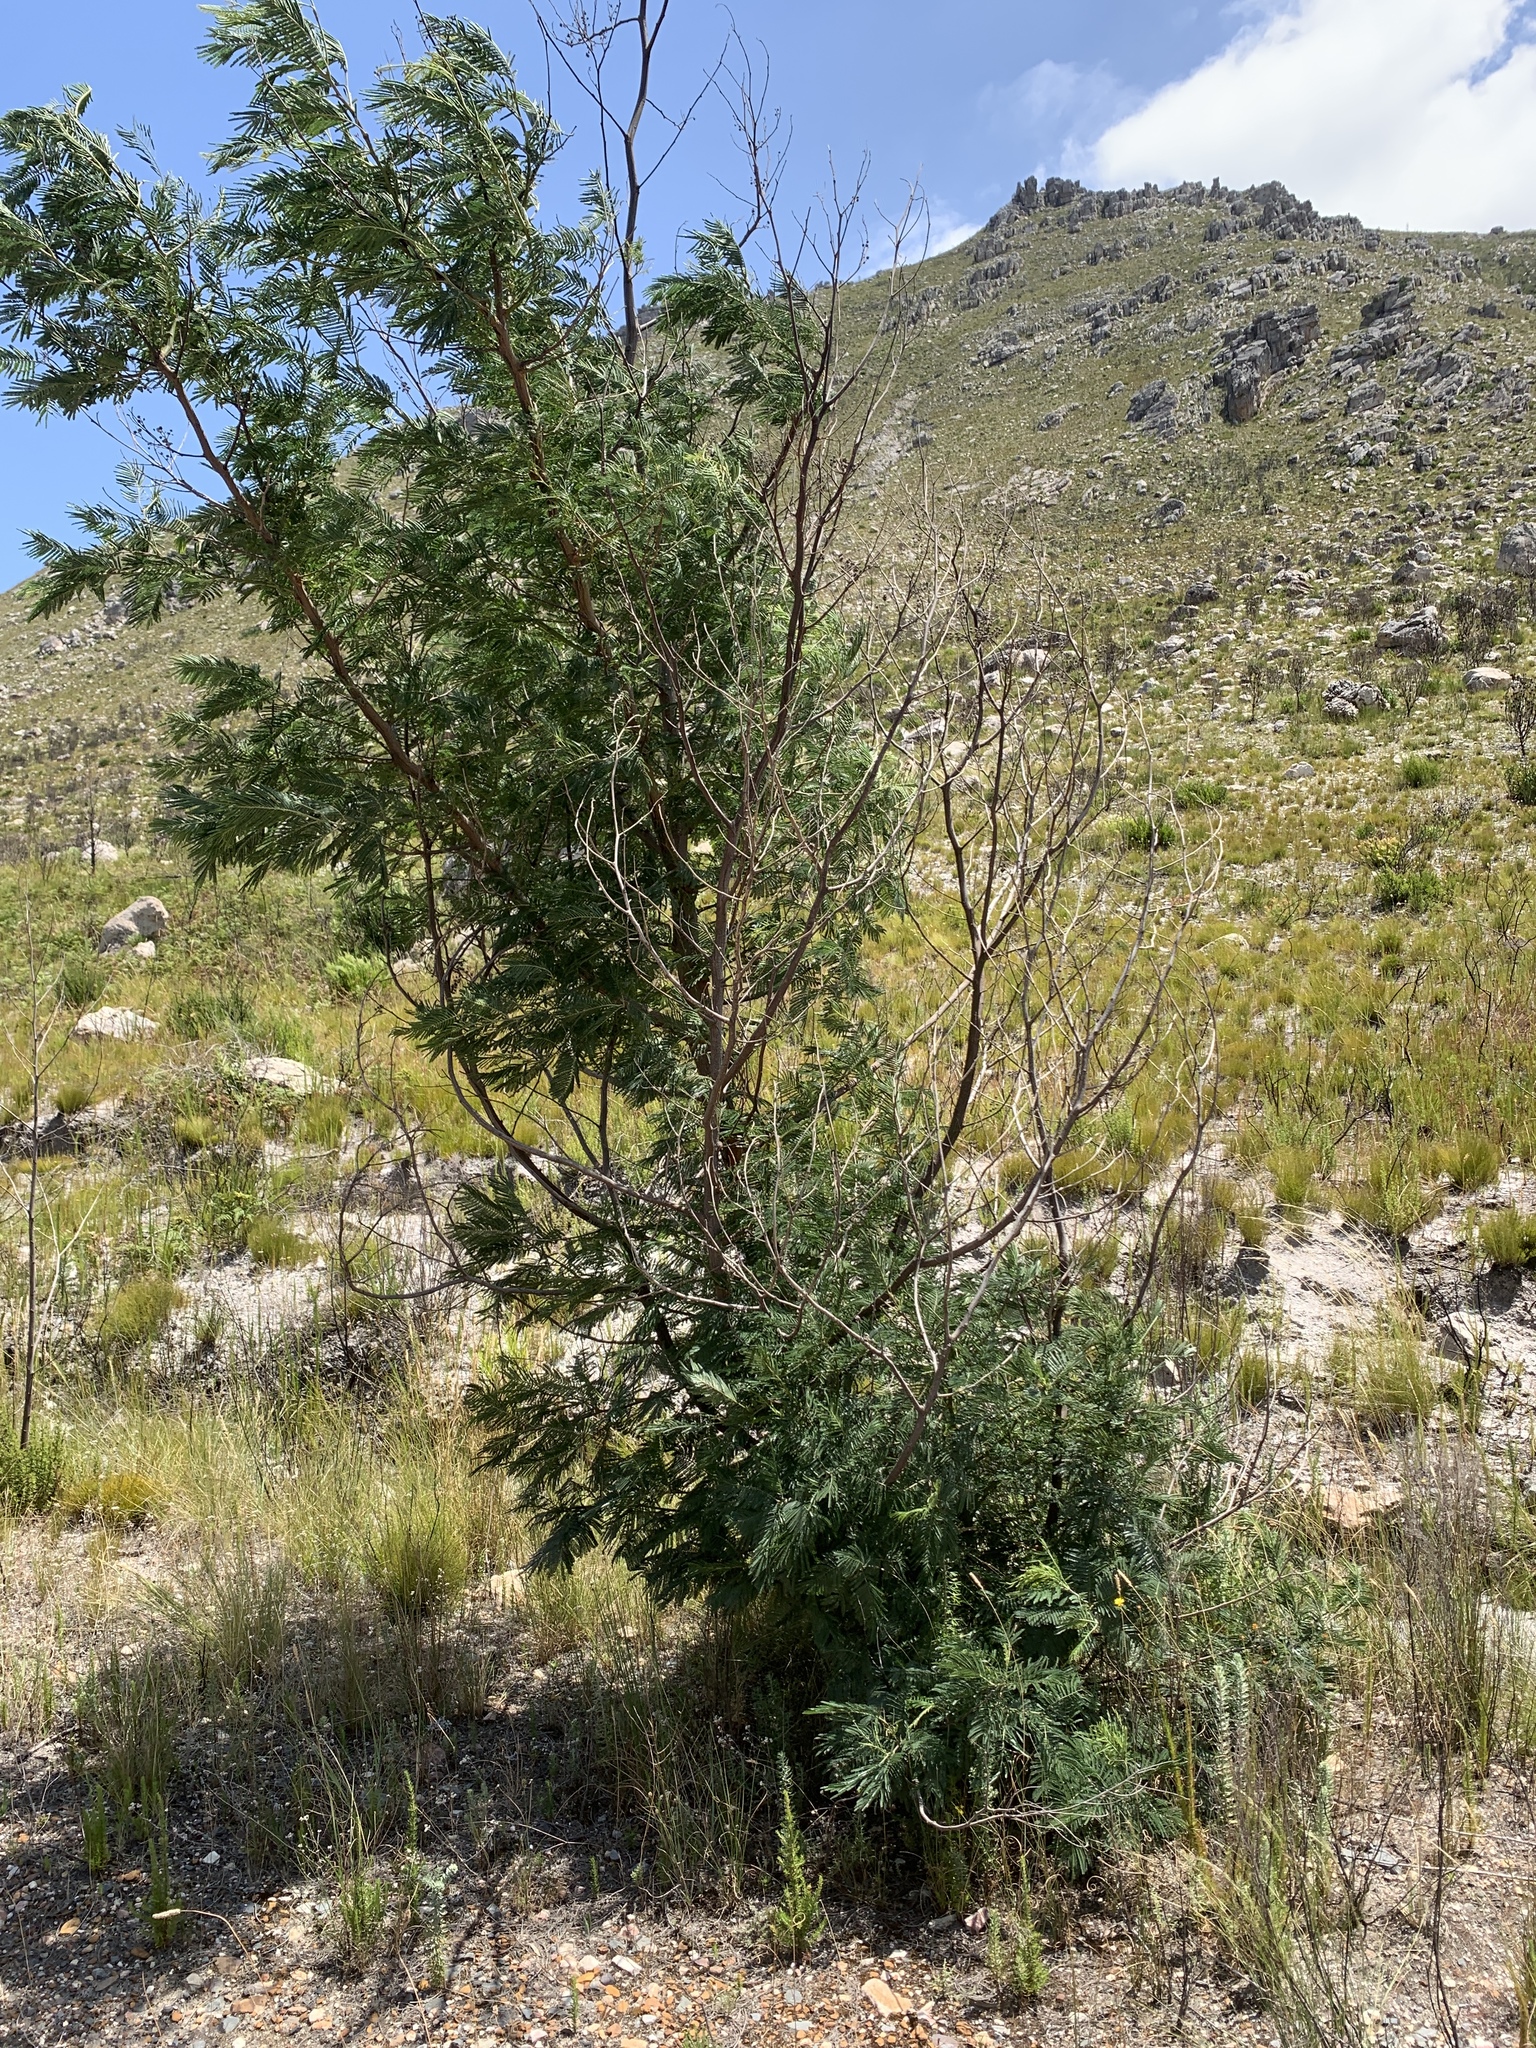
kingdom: Plantae
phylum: Tracheophyta
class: Magnoliopsida
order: Fabales
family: Fabaceae
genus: Acacia
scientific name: Acacia mearnsii
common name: Black wattle
